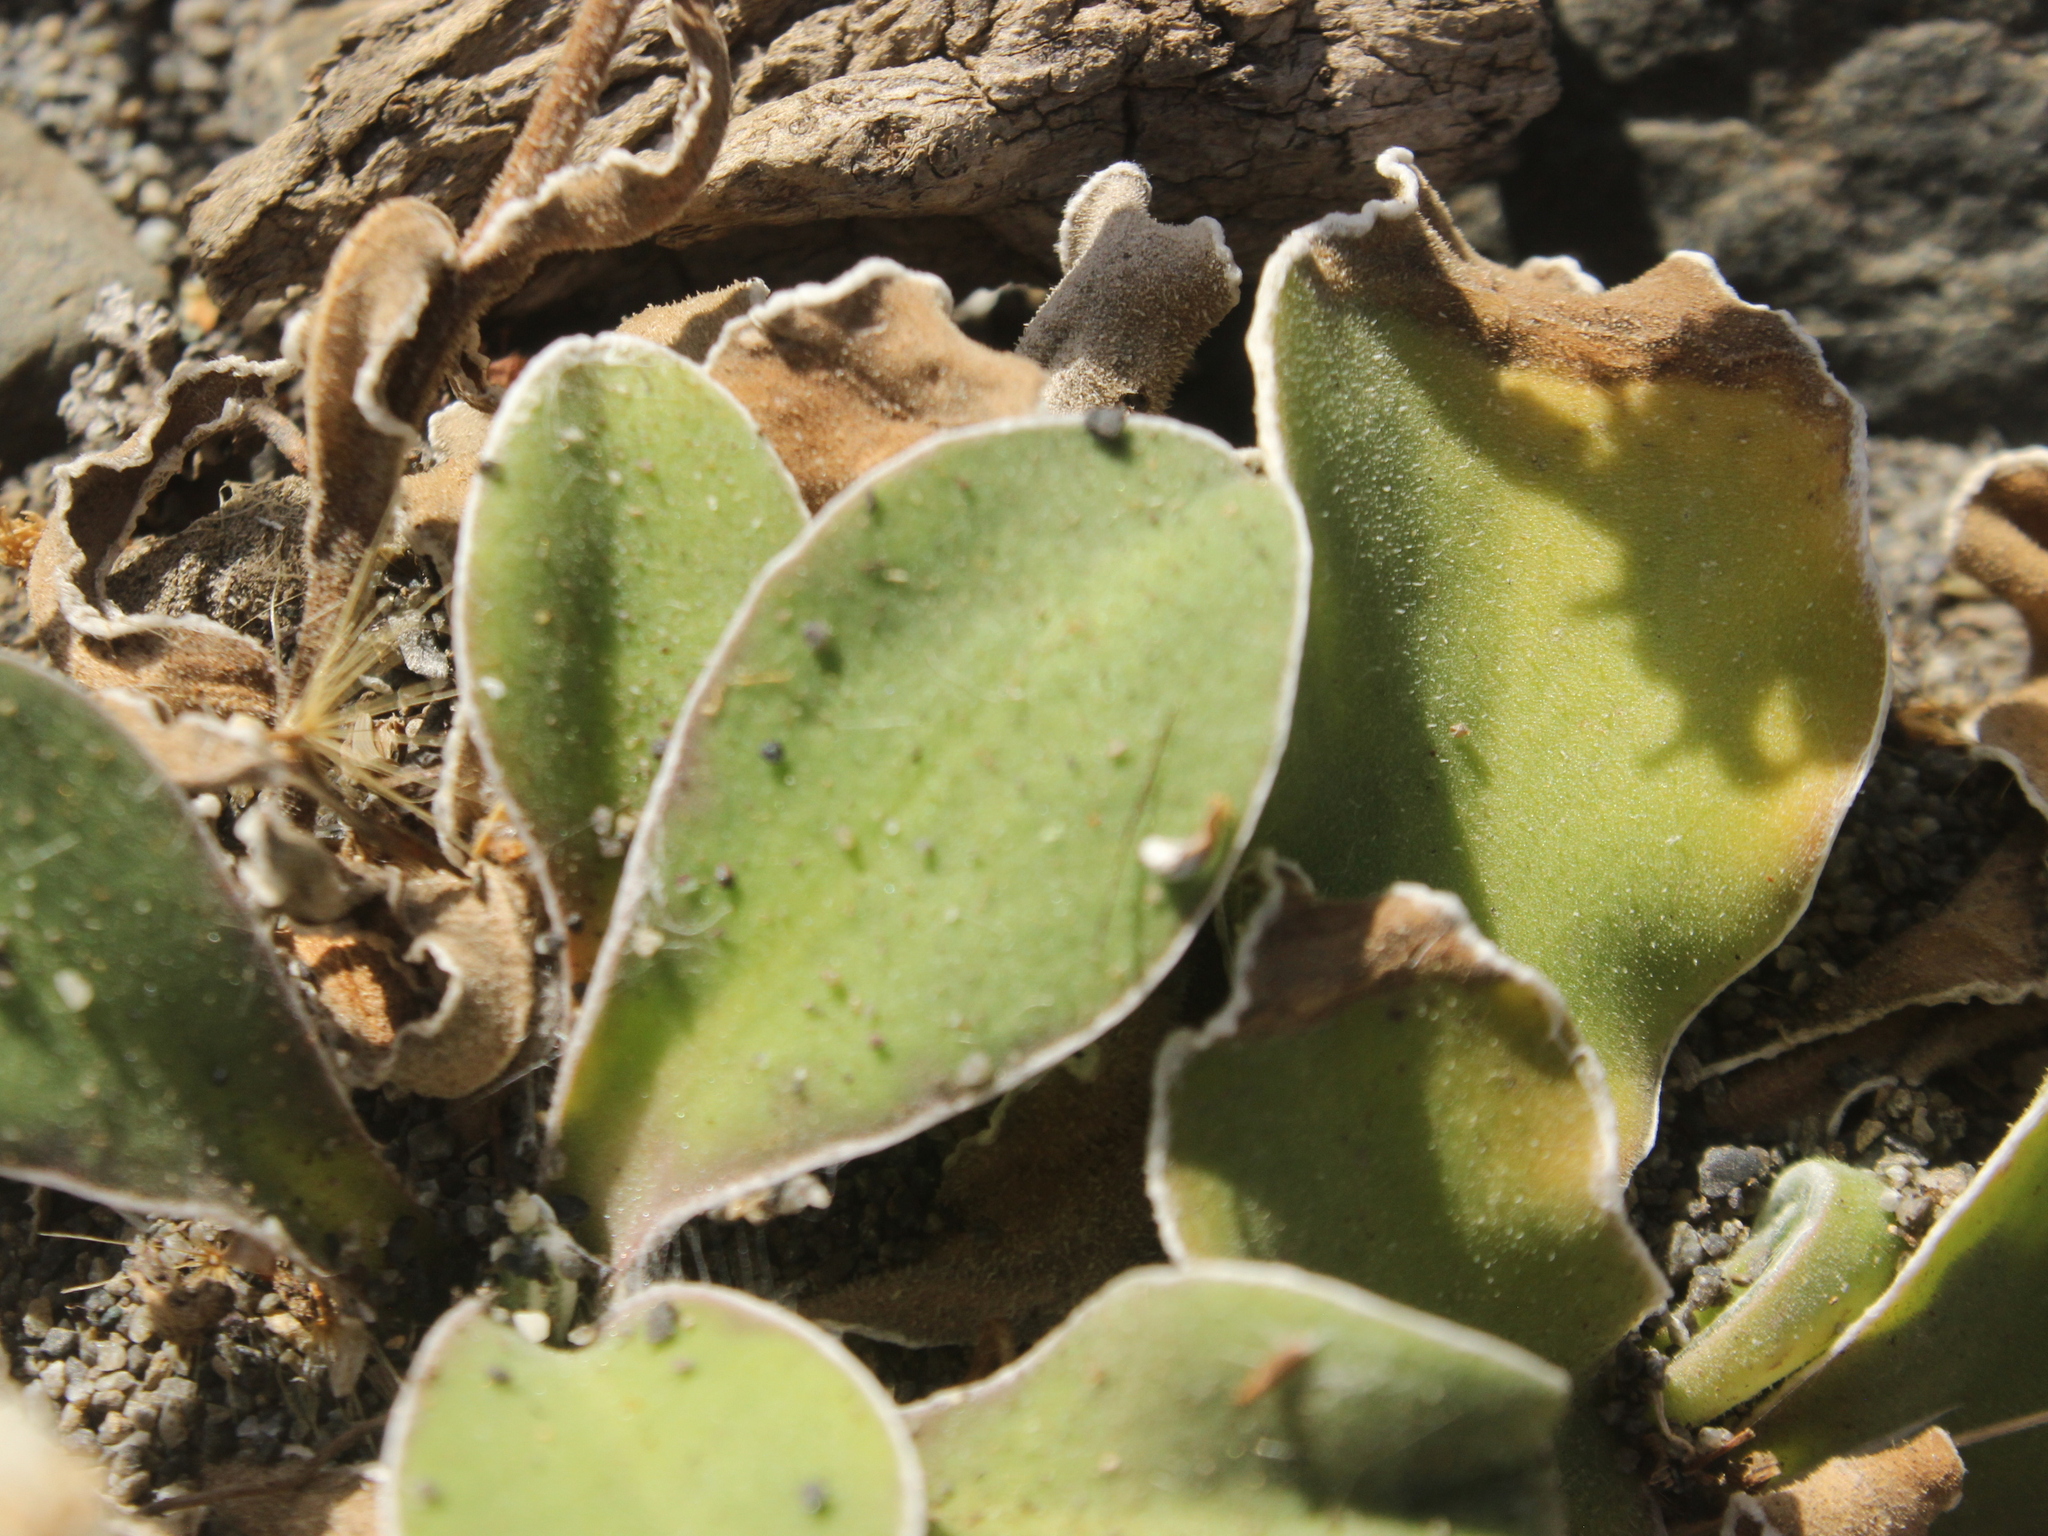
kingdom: Plantae
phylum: Tracheophyta
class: Magnoliopsida
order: Asterales
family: Asteraceae
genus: Craspedia
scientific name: Craspedia uniflora
